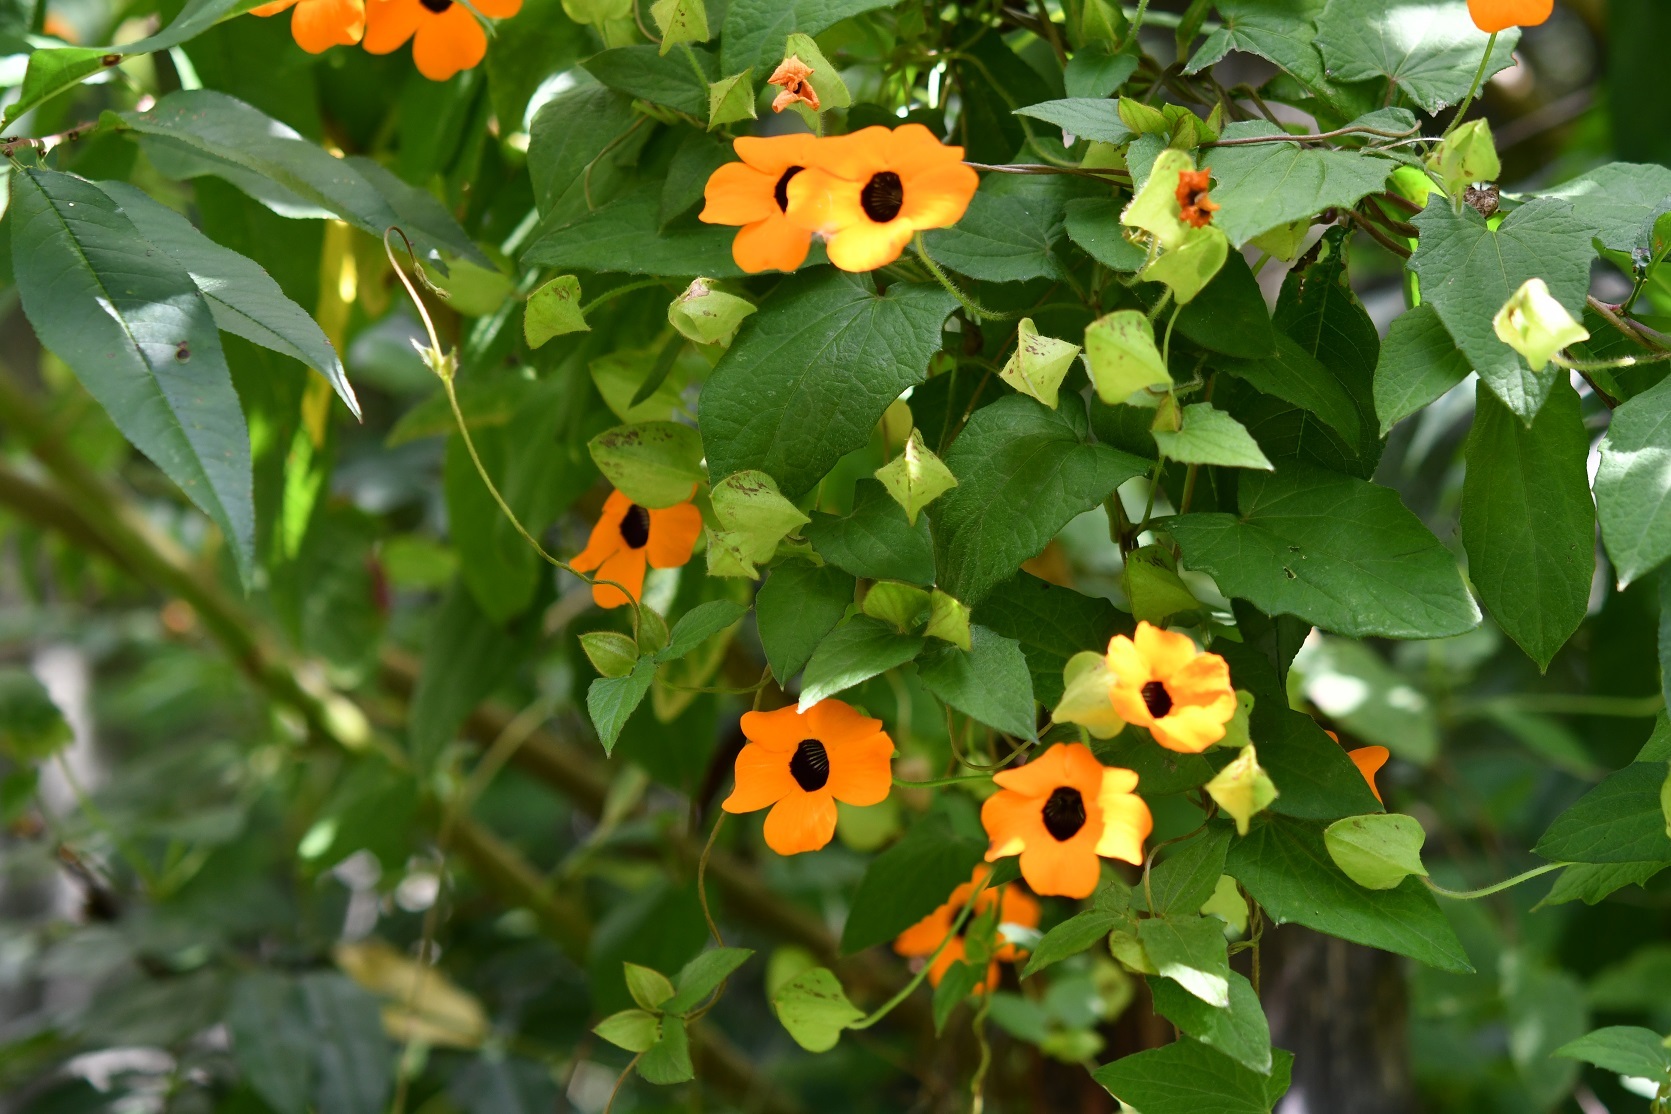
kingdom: Plantae
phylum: Tracheophyta
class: Magnoliopsida
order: Lamiales
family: Acanthaceae
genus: Thunbergia
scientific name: Thunbergia alata
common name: Blackeyed susan vine
